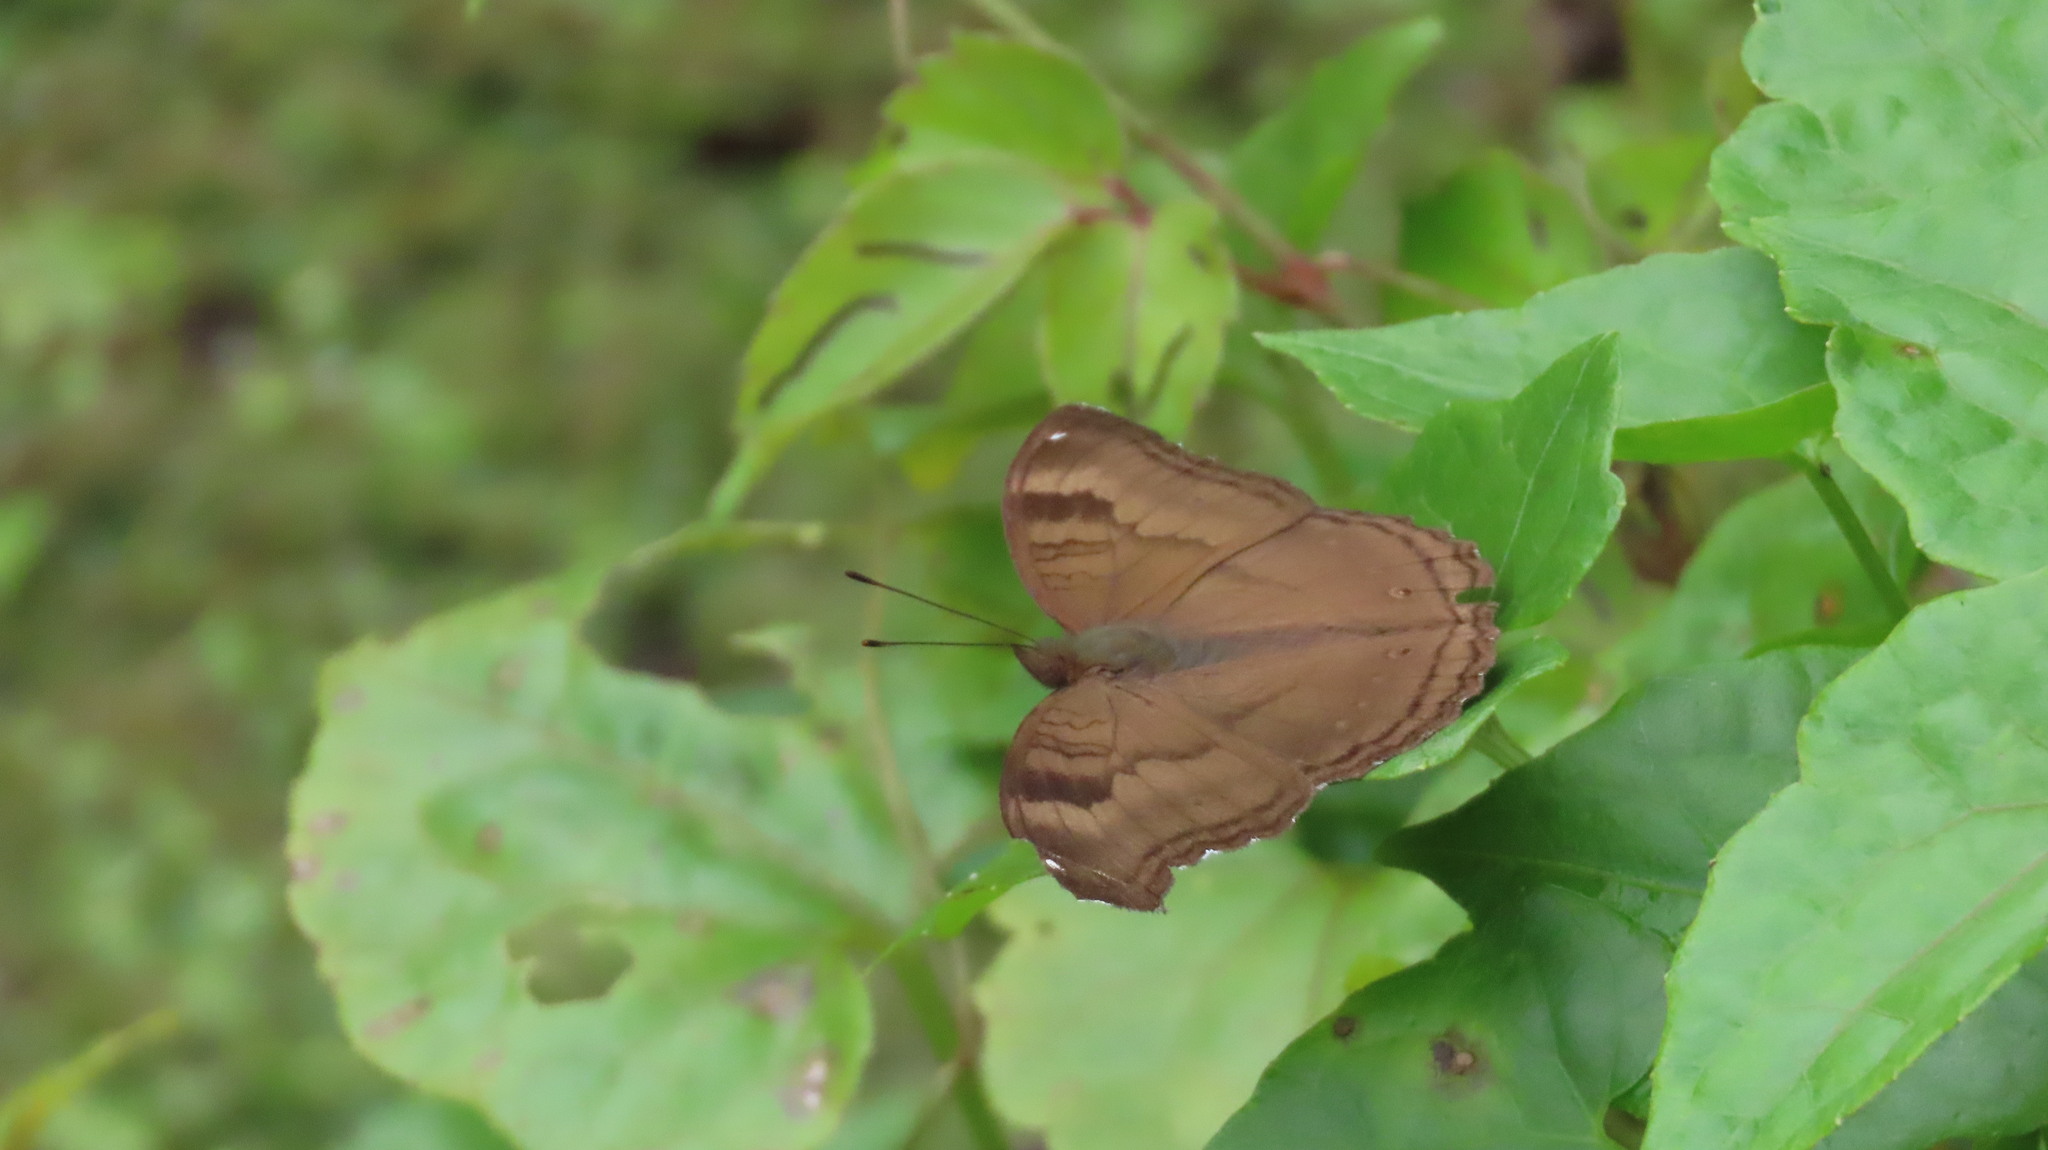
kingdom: Animalia
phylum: Arthropoda
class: Insecta
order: Lepidoptera
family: Nymphalidae
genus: Junonia
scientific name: Junonia iphita
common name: Chocolate pansy
